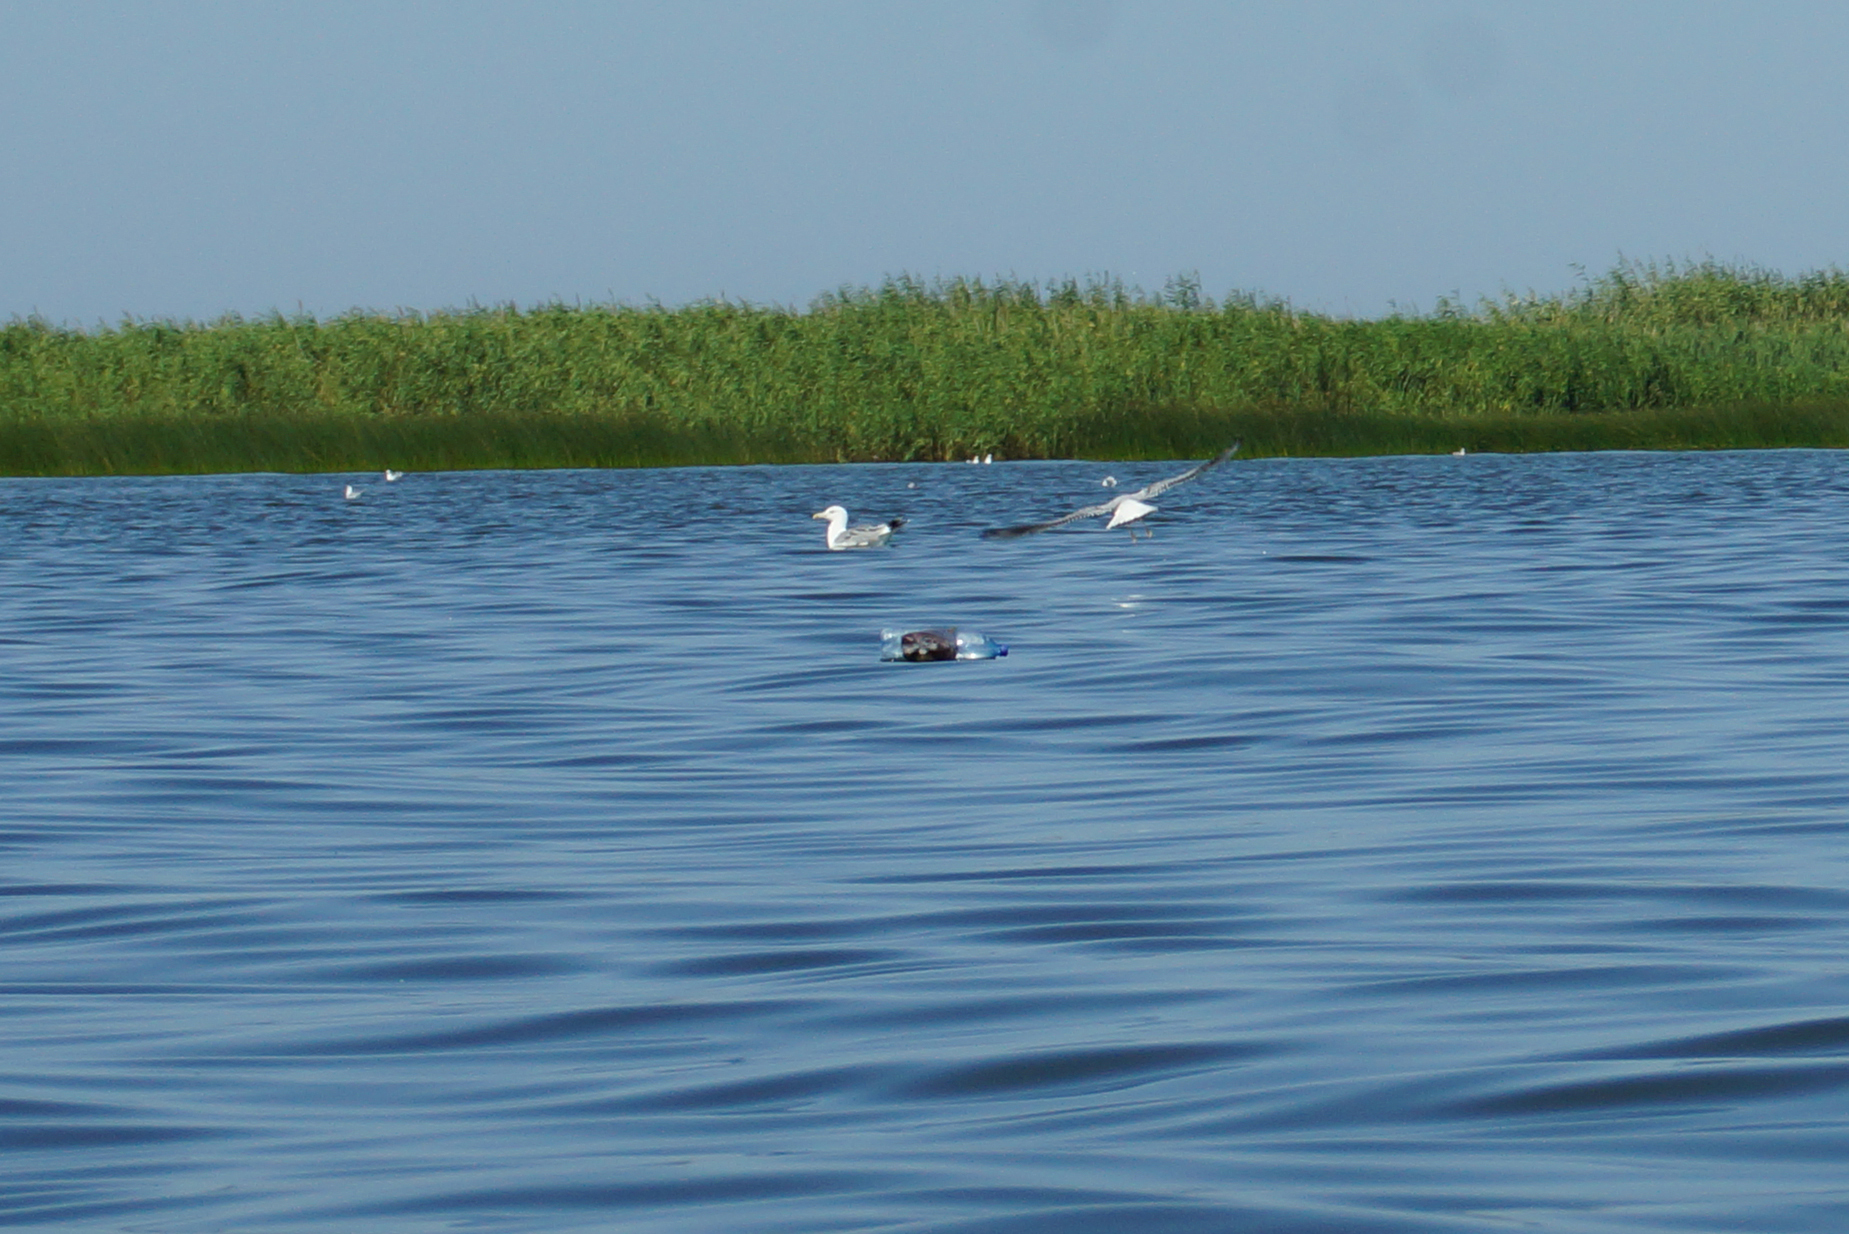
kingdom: Animalia
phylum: Chordata
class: Aves
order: Charadriiformes
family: Laridae
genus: Larus
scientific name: Larus cachinnans
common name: Caspian gull
